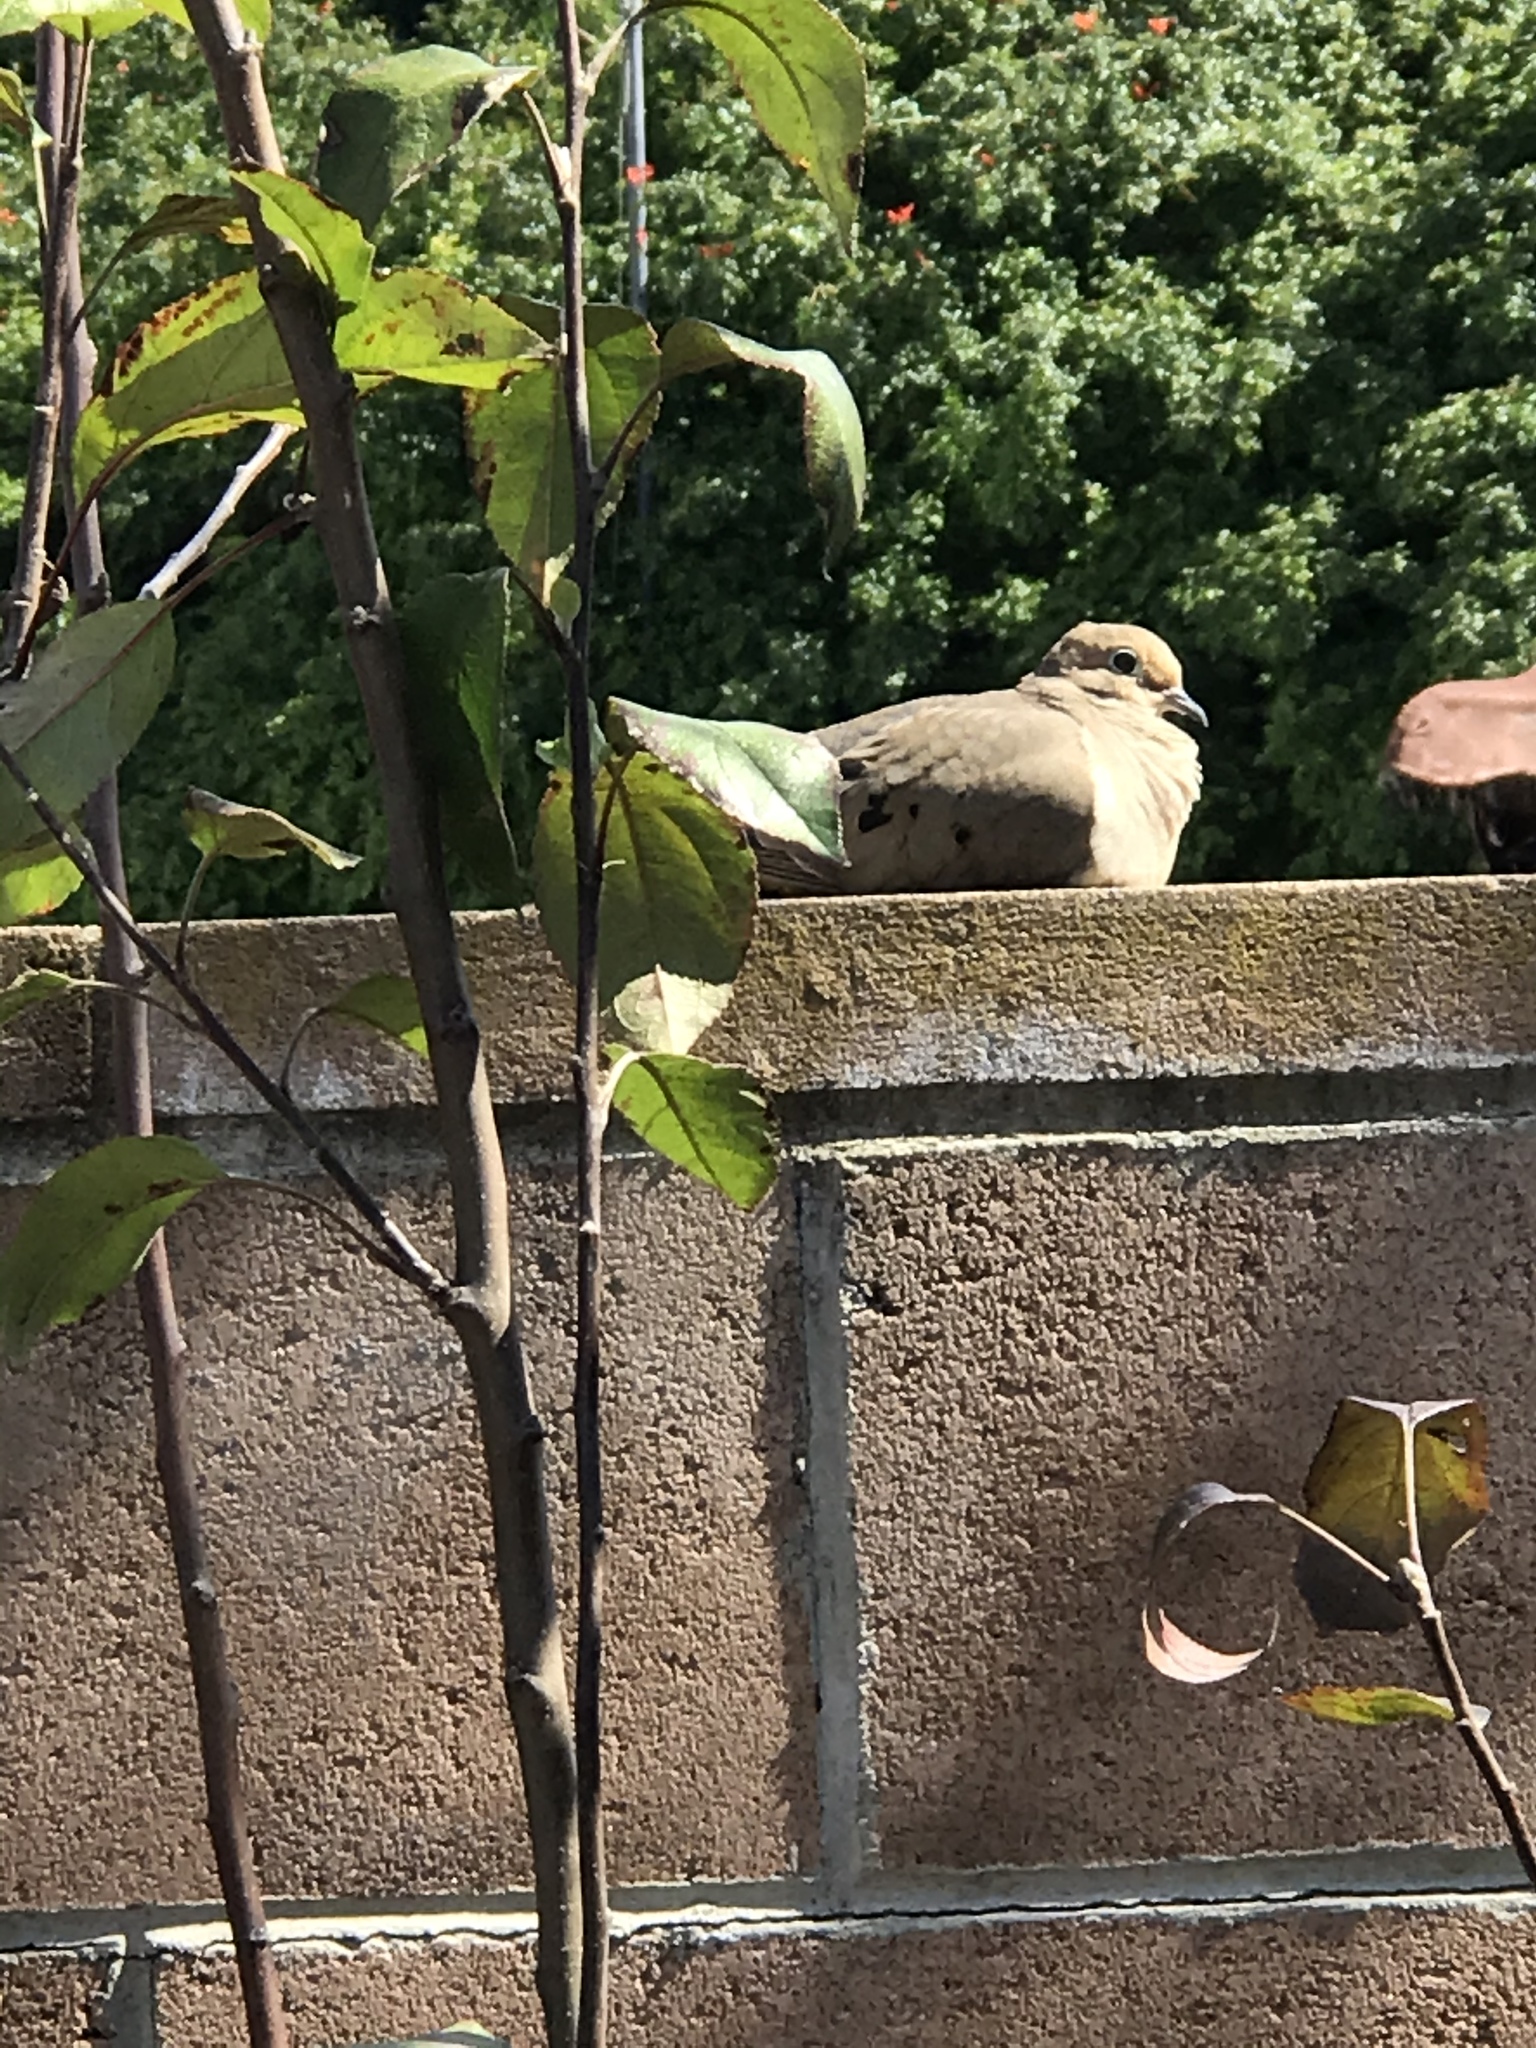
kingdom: Animalia
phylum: Chordata
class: Aves
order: Columbiformes
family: Columbidae
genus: Zenaida
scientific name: Zenaida macroura
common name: Mourning dove
